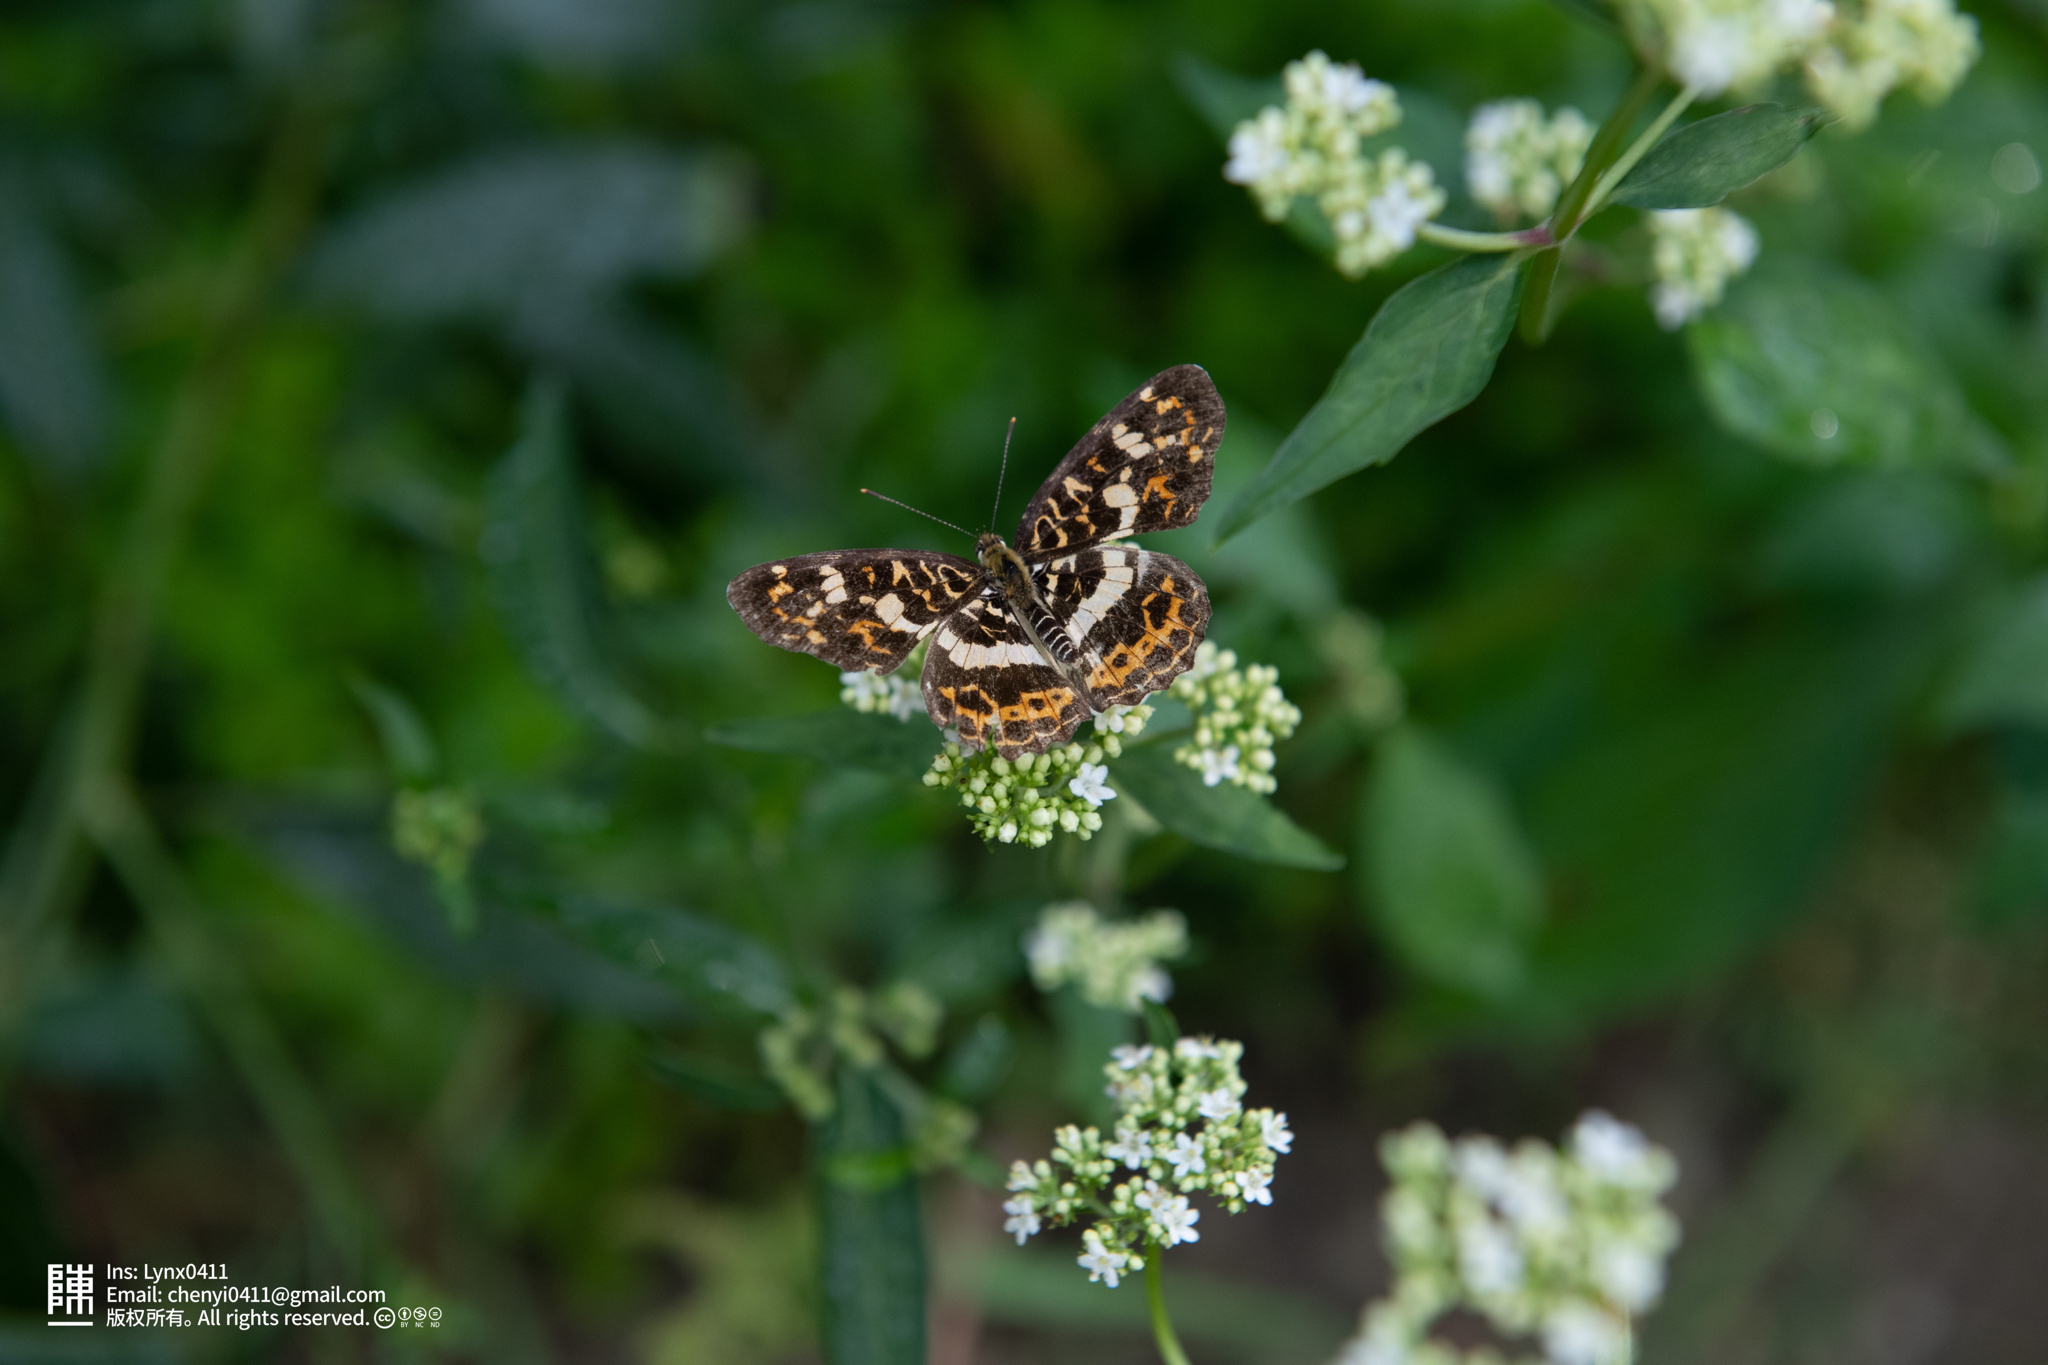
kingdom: Animalia
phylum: Arthropoda
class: Insecta
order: Lepidoptera
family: Nymphalidae
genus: Araschnia
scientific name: Araschnia doris
